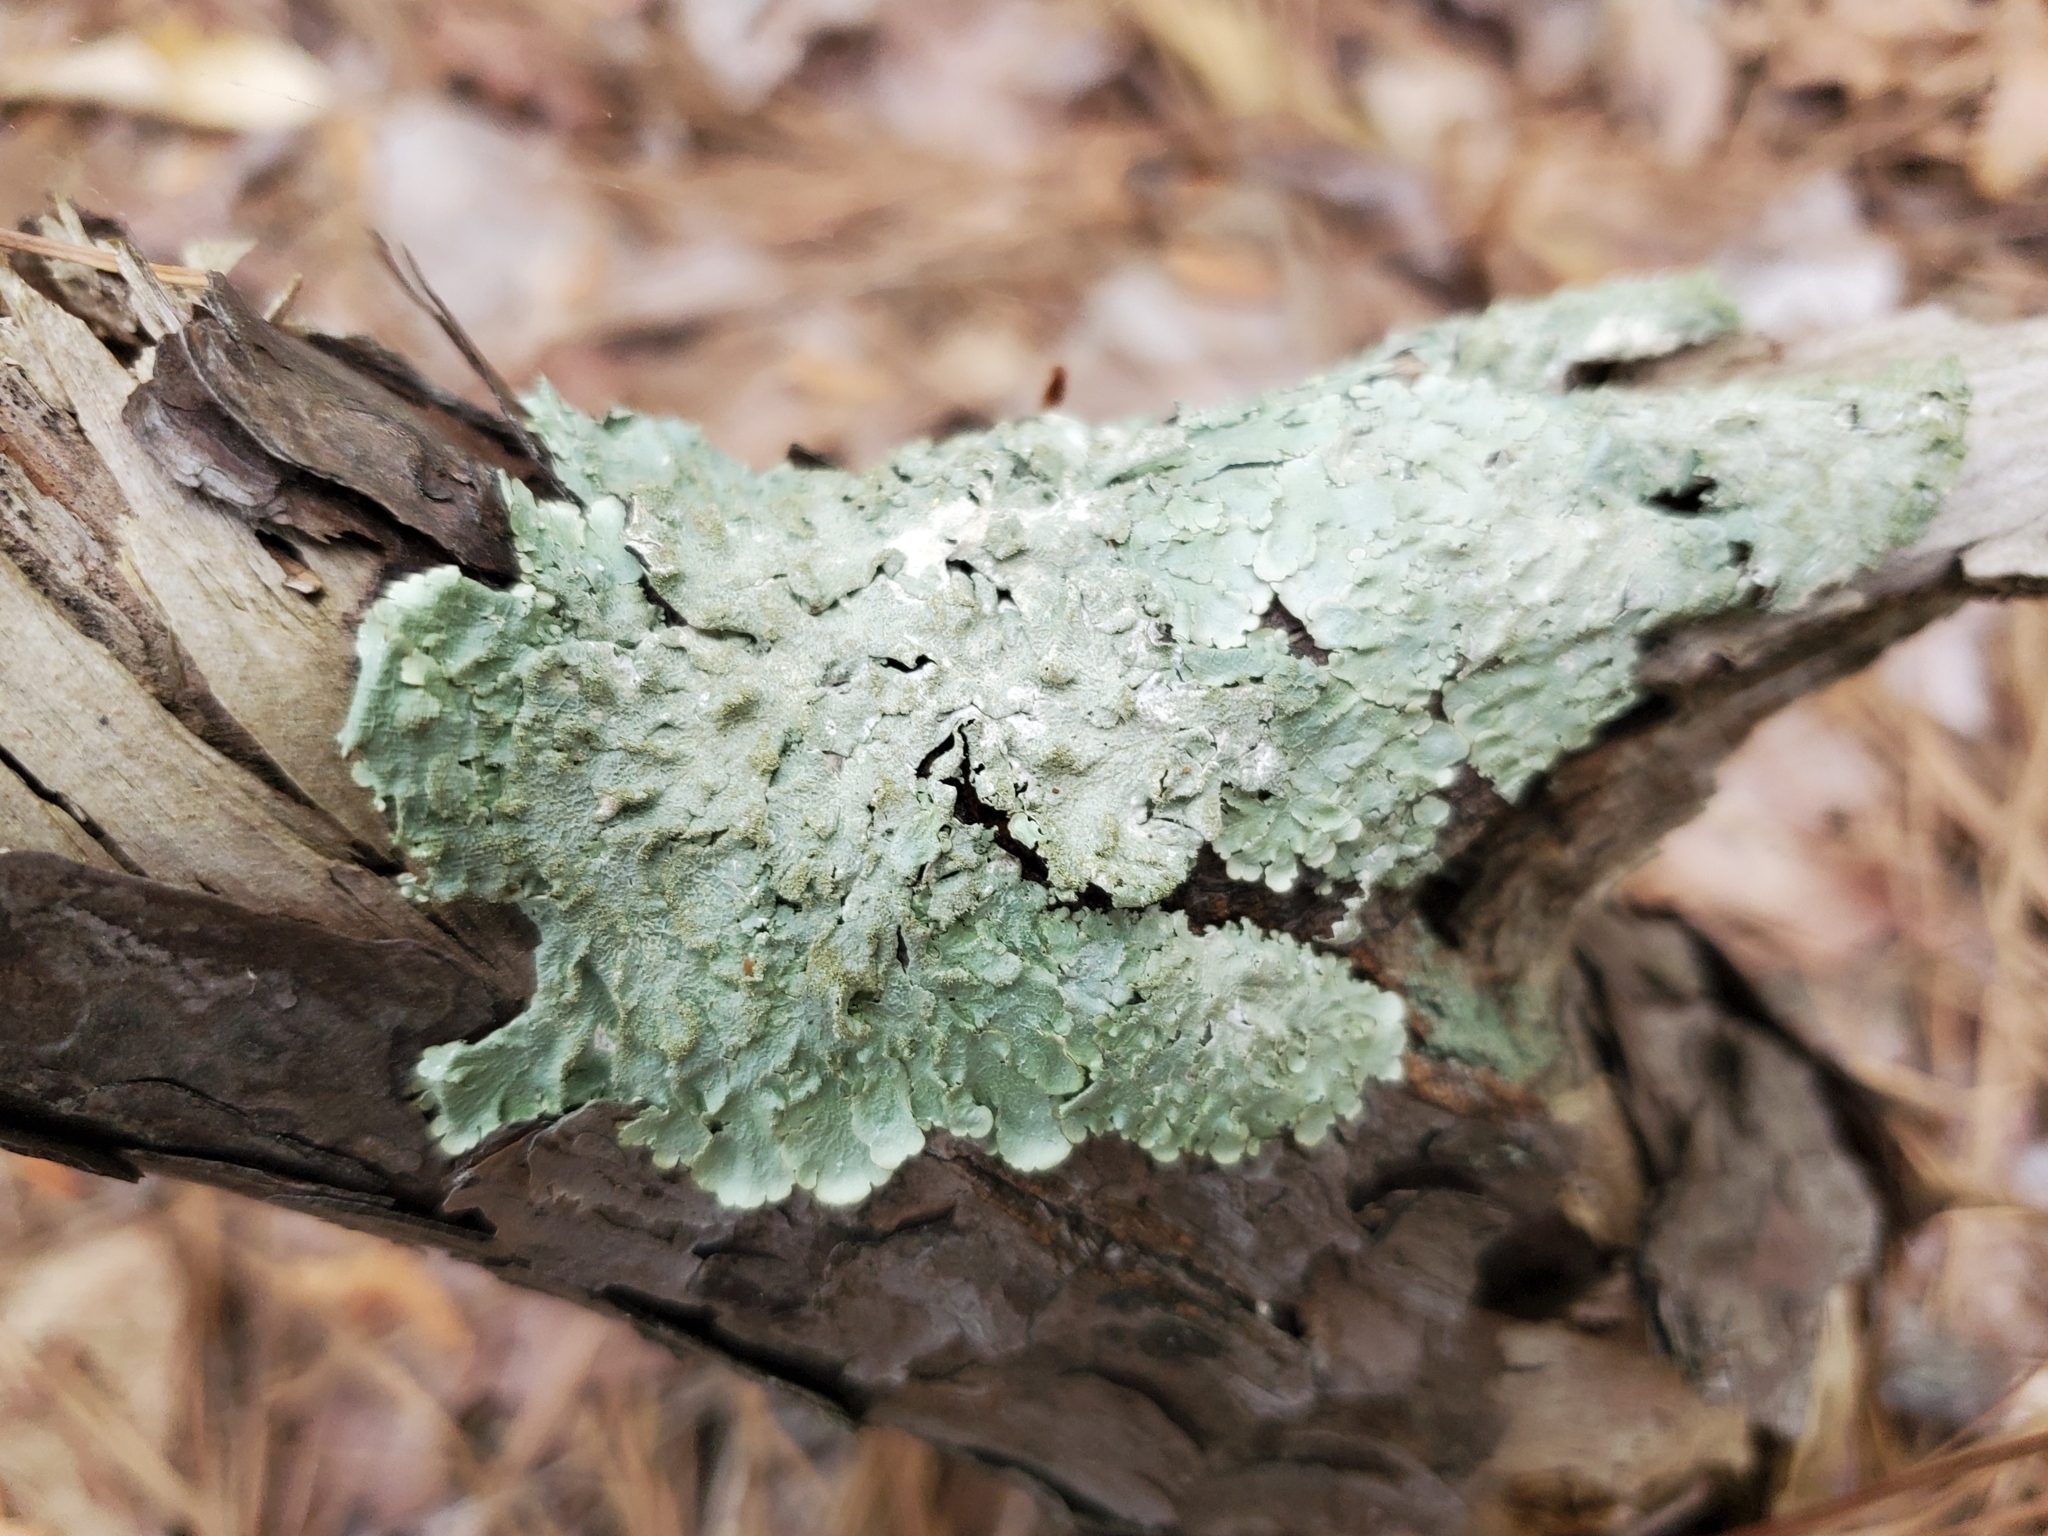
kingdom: Fungi
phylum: Ascomycota
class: Lecanoromycetes
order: Lecanorales
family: Parmeliaceae
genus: Flavoparmelia
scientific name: Flavoparmelia caperata
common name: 40-mile per hour lichen
